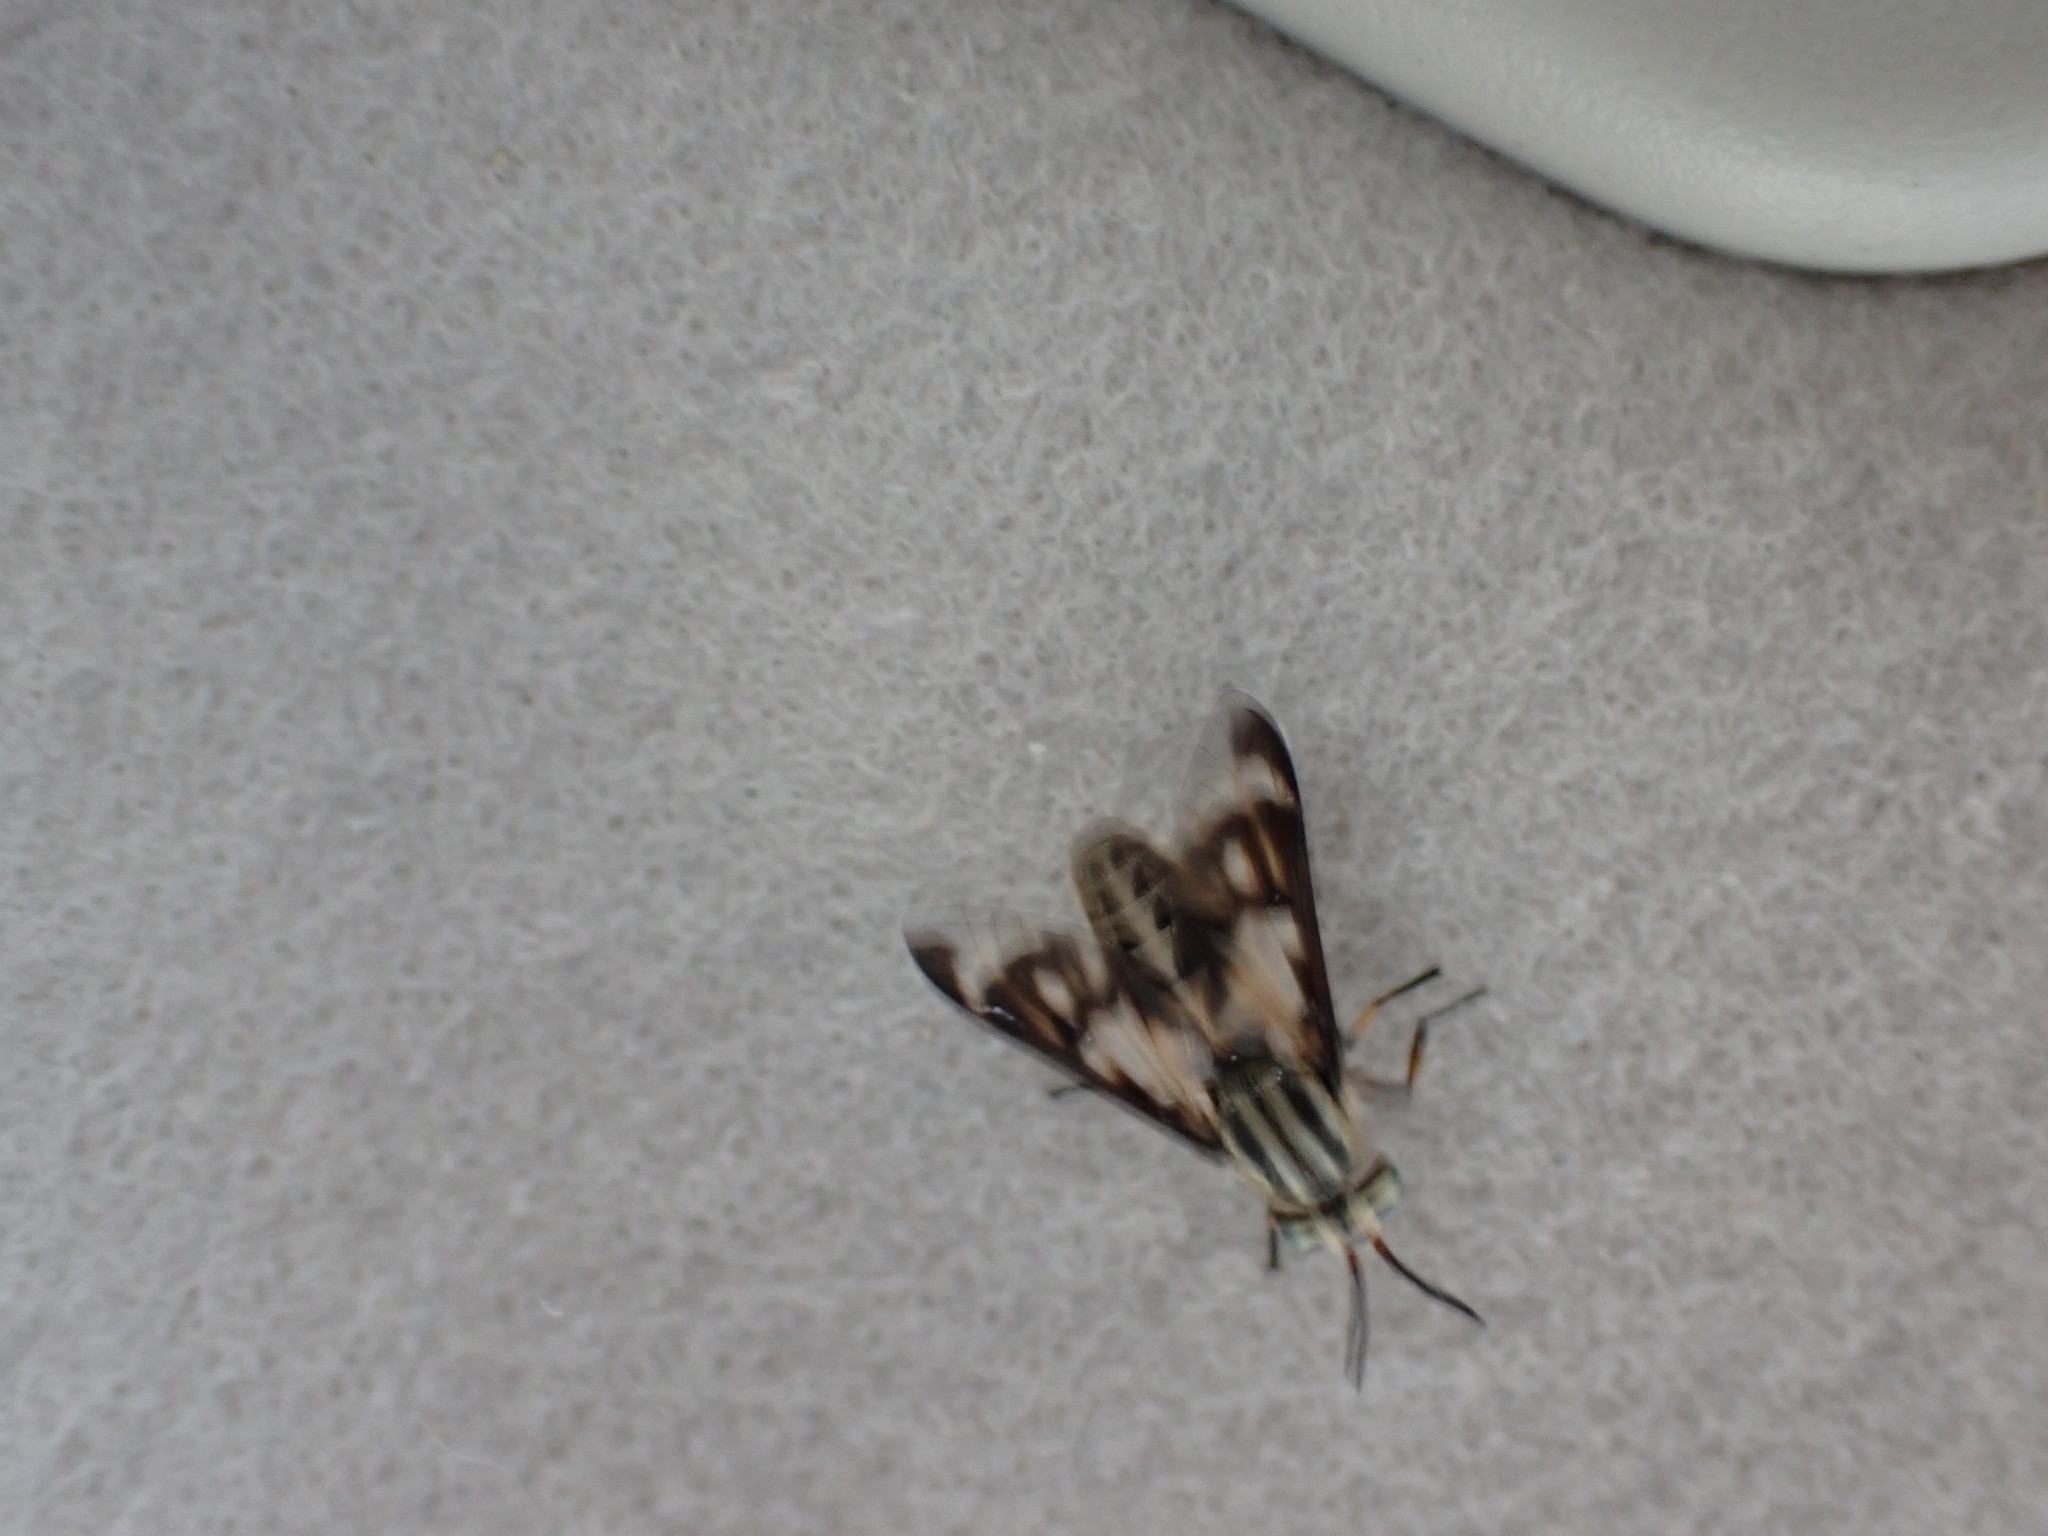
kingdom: Animalia
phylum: Arthropoda
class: Insecta
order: Diptera
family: Tabanidae
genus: Chrysops
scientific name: Chrysops italicus
